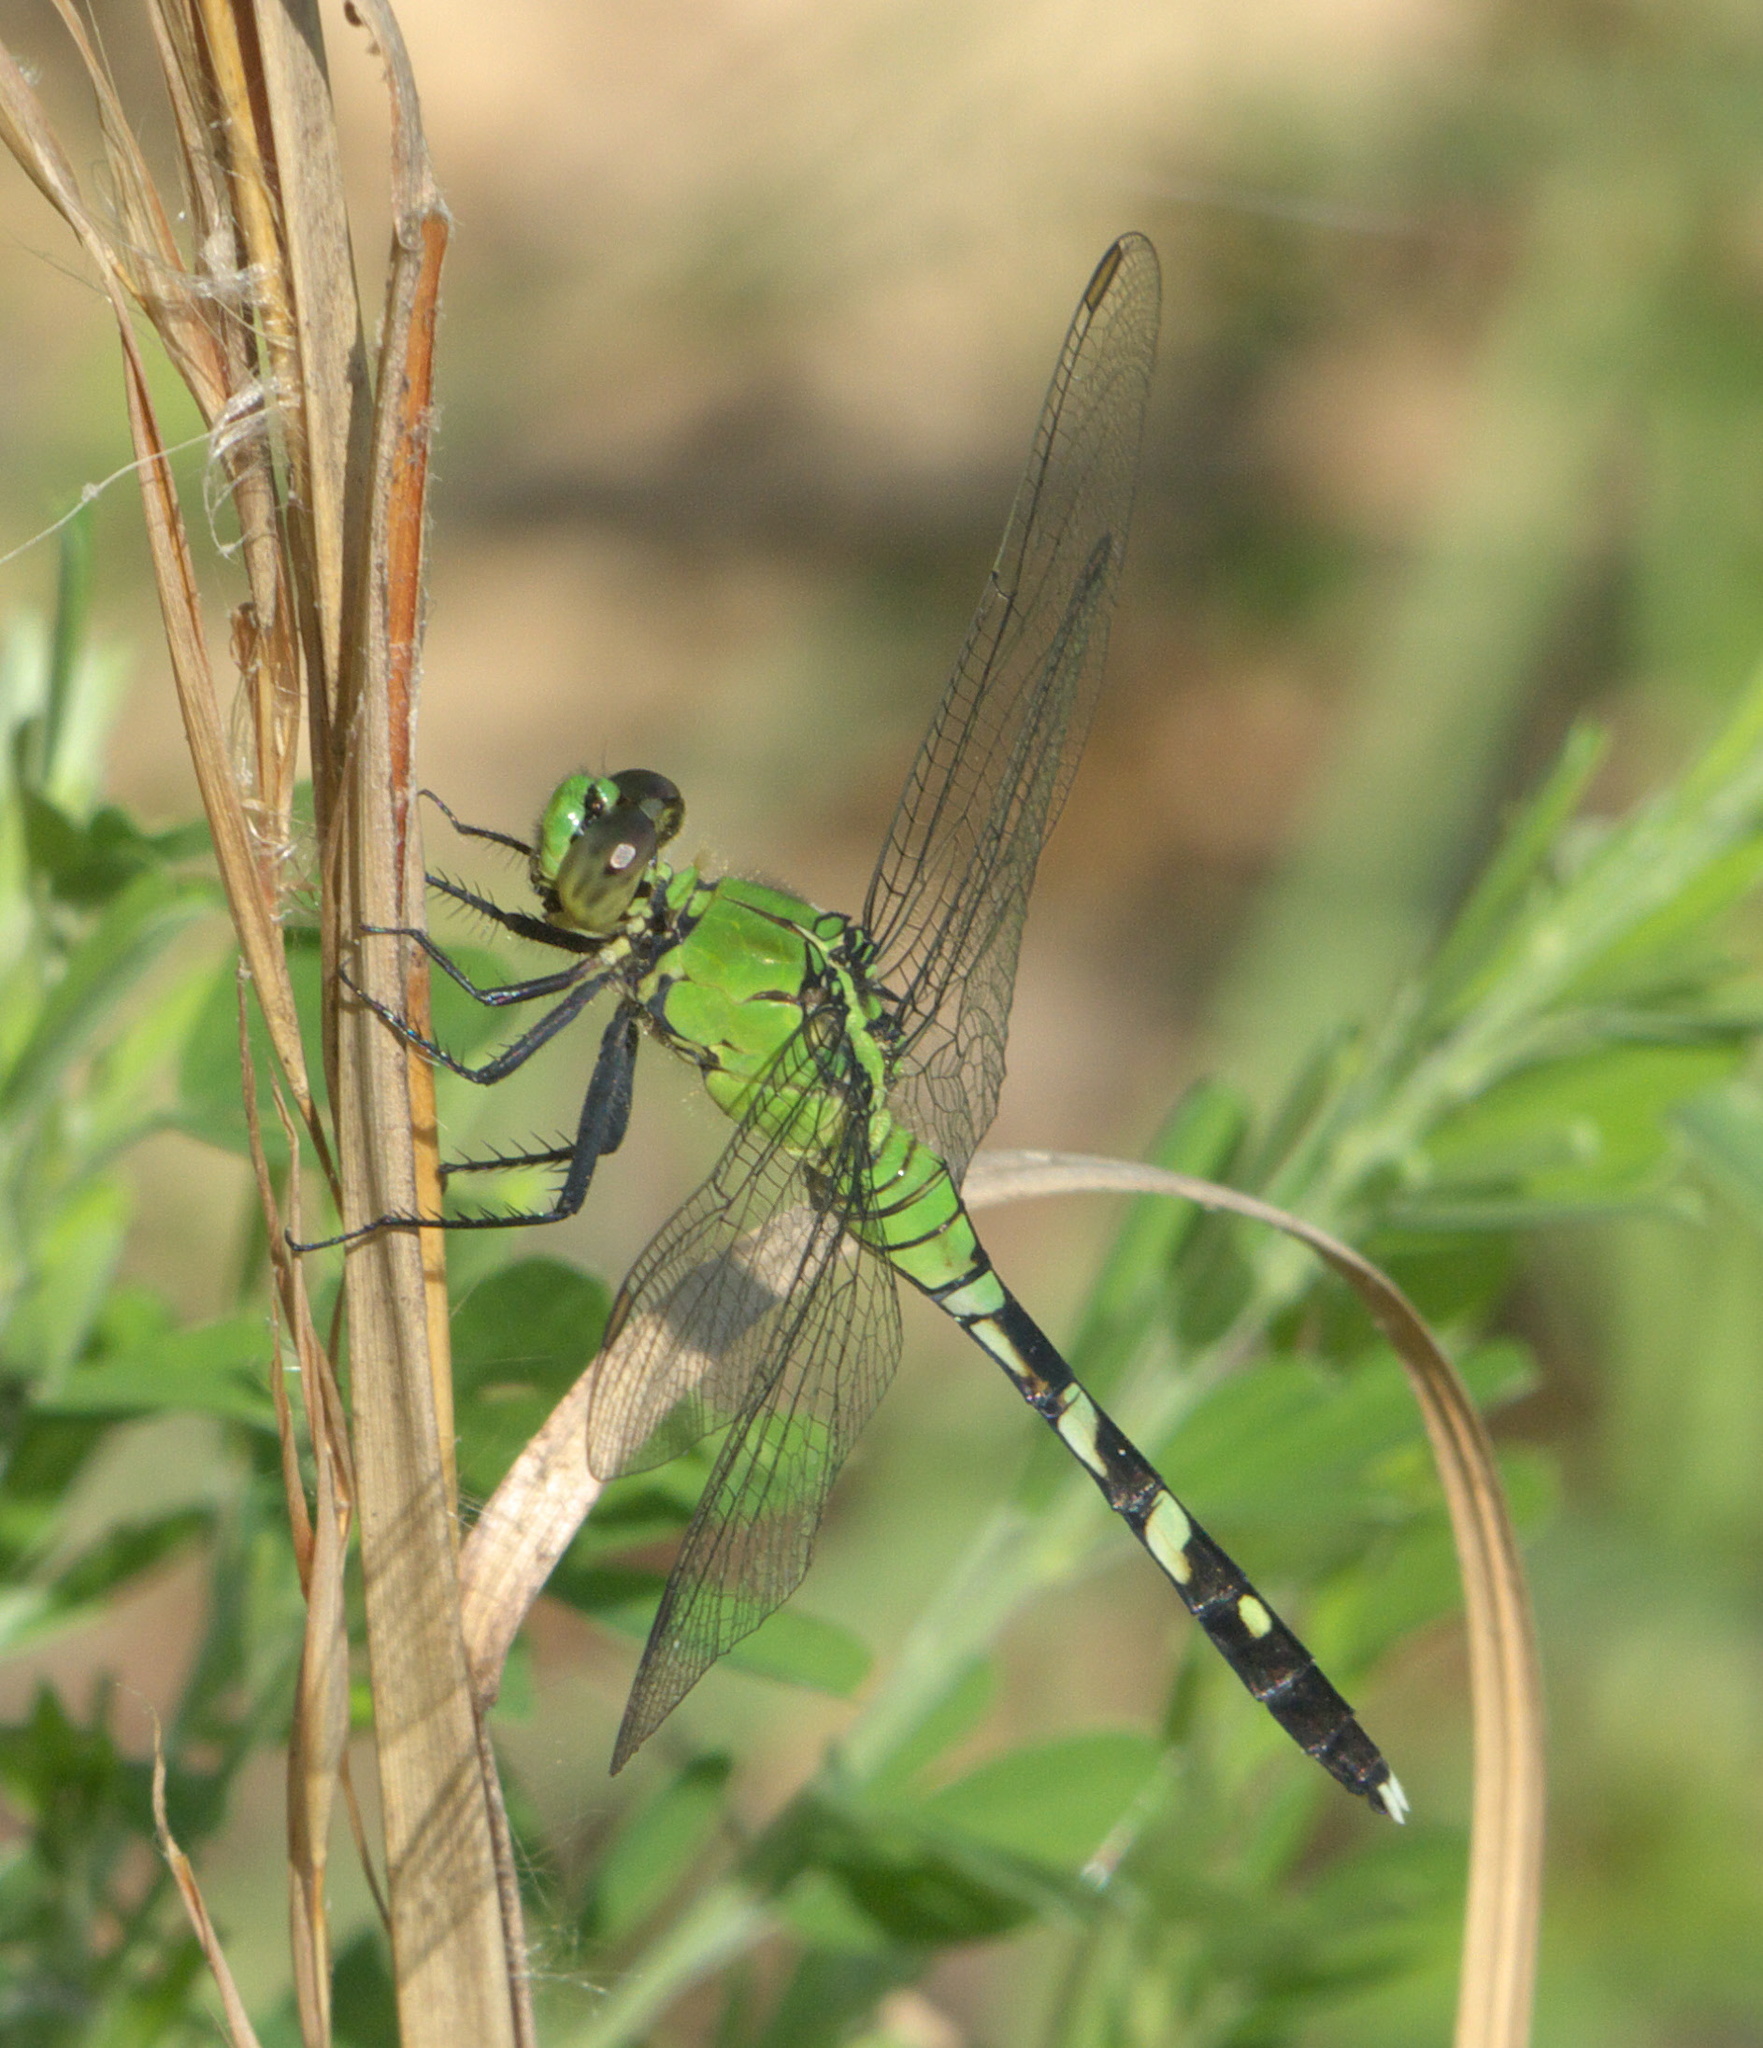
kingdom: Animalia
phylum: Arthropoda
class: Insecta
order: Odonata
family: Libellulidae
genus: Erythemis
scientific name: Erythemis simplicicollis
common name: Eastern pondhawk
